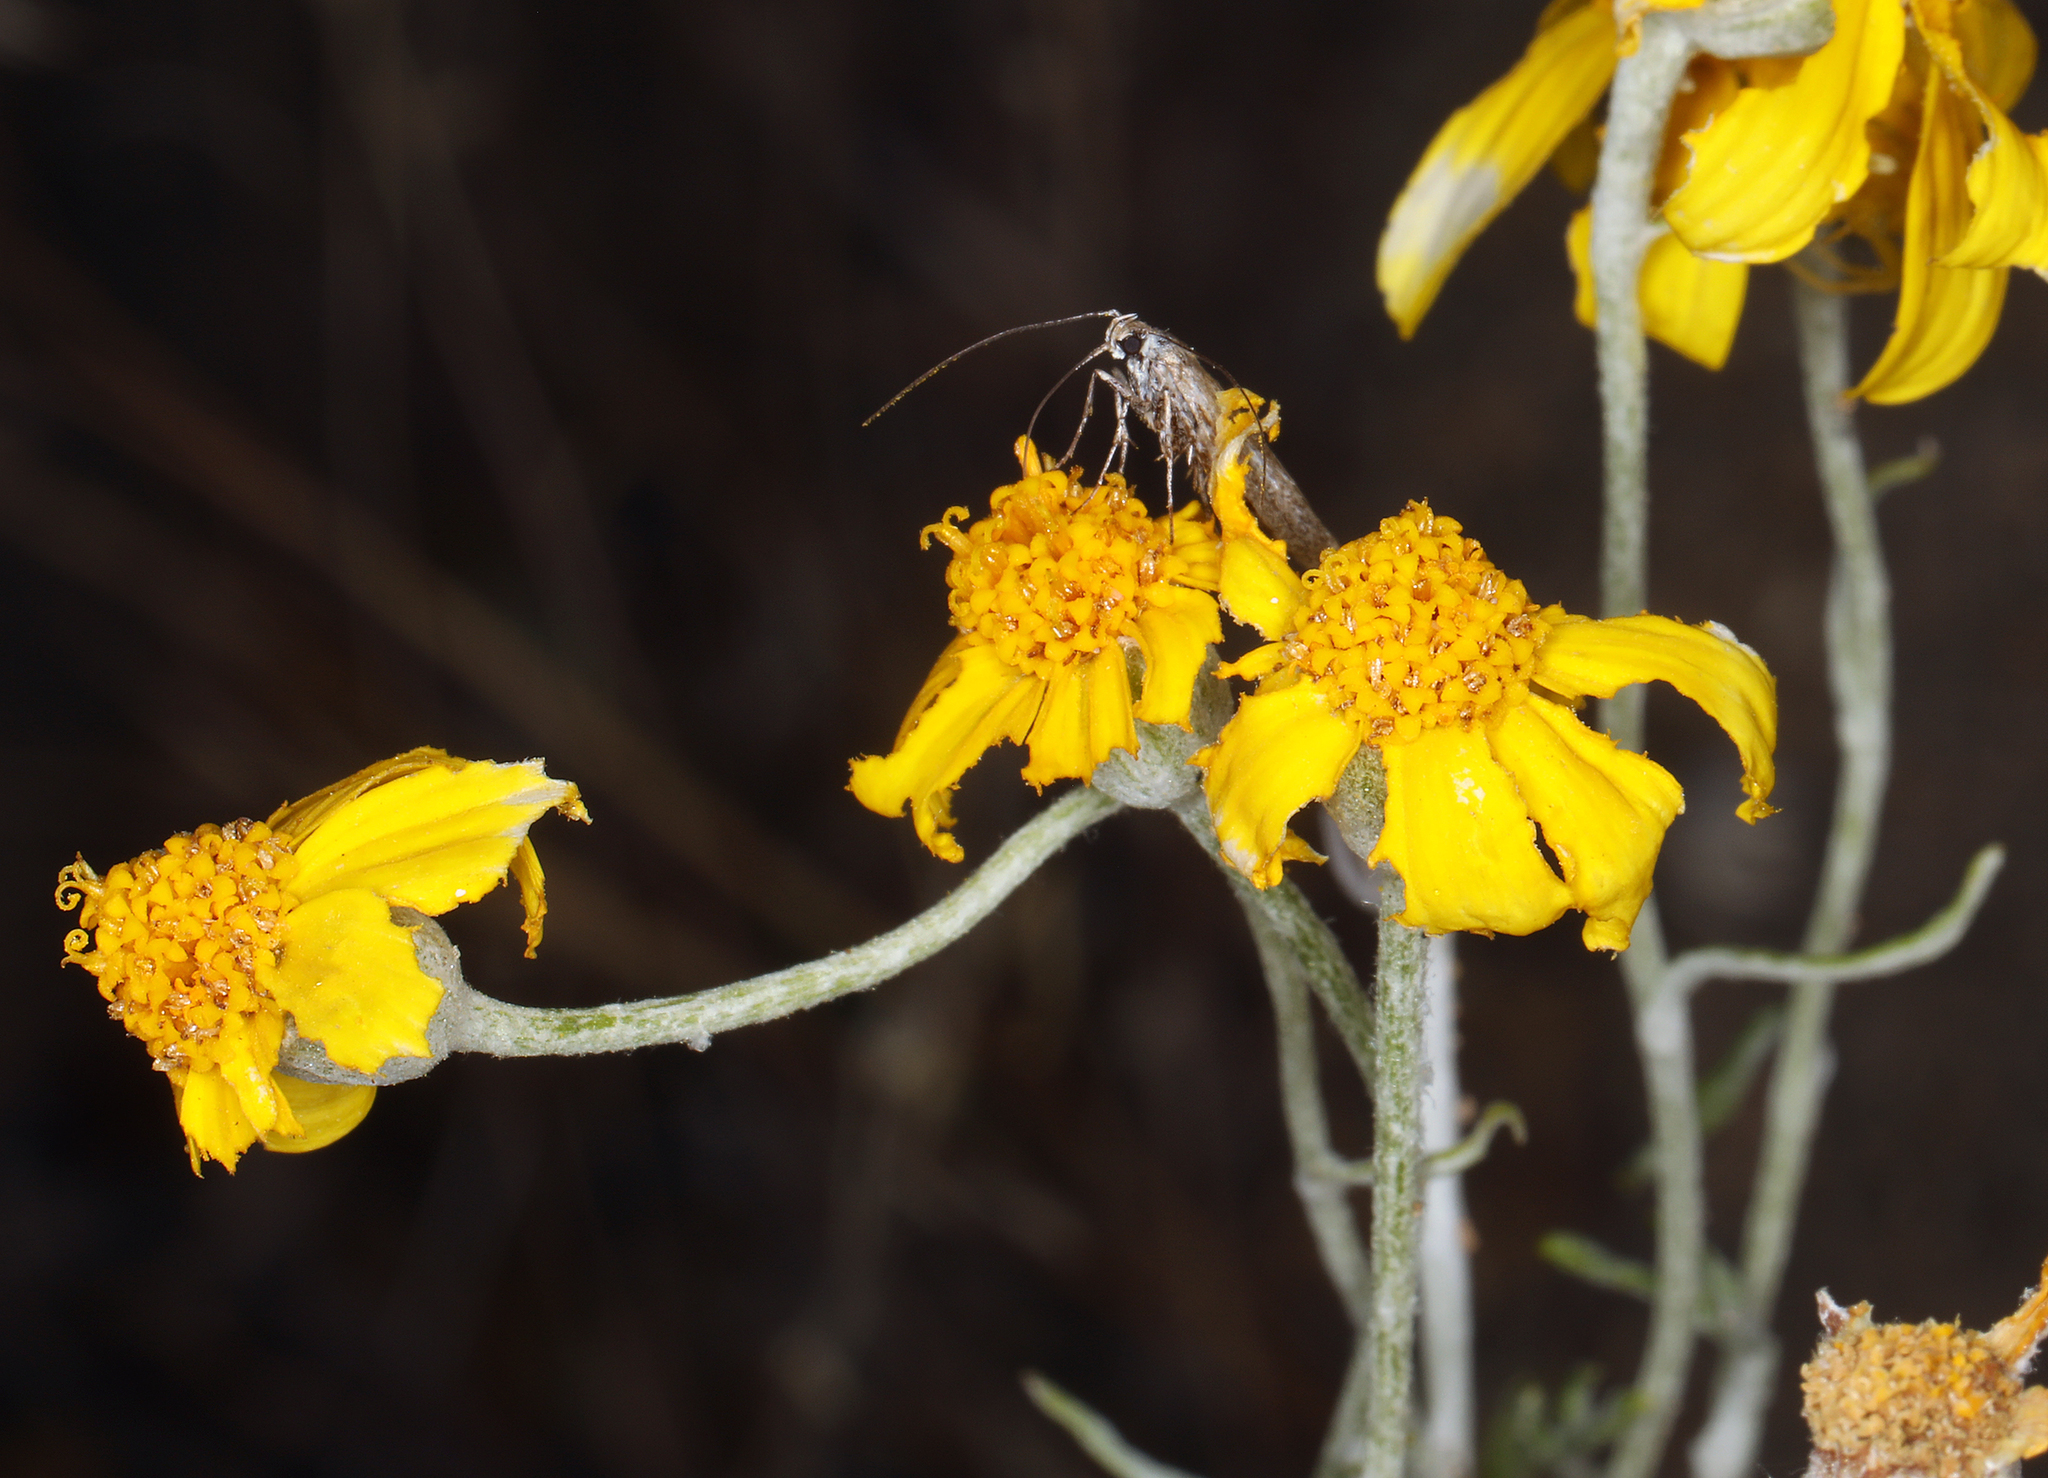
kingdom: Plantae
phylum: Tracheophyta
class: Magnoliopsida
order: Asterales
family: Asteraceae
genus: Eriophyllum
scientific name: Eriophyllum lanatum
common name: Common woolly-sunflower
